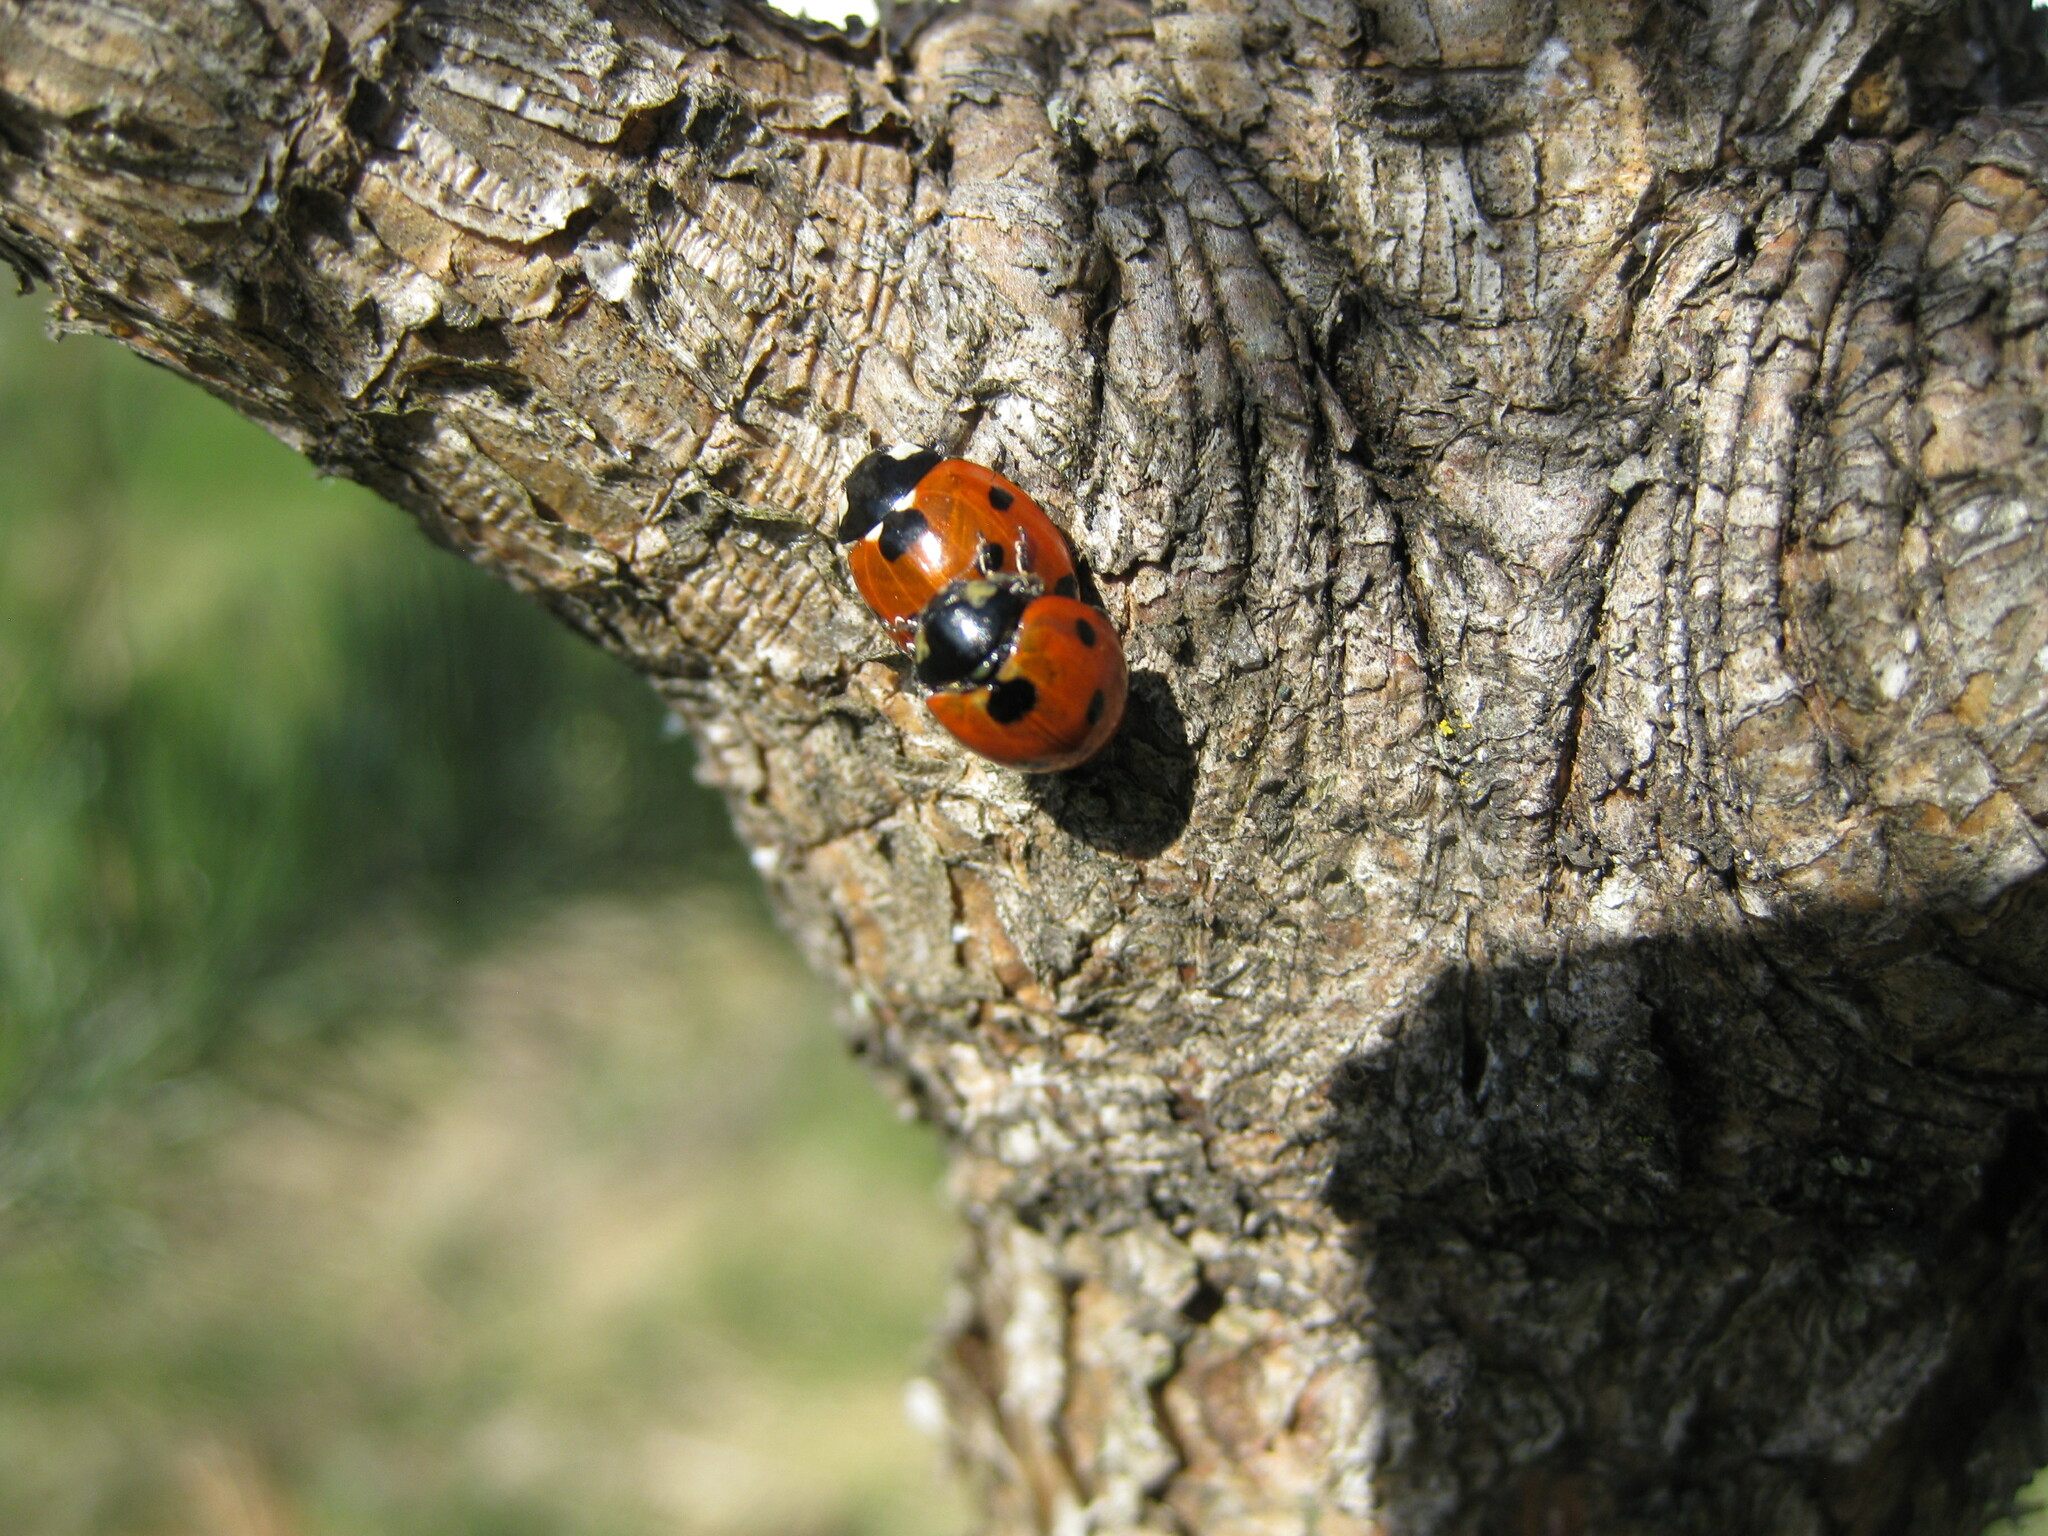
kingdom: Animalia
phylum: Arthropoda
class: Insecta
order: Coleoptera
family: Coccinellidae
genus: Coccinella
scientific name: Coccinella septempunctata
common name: Sevenspotted lady beetle
